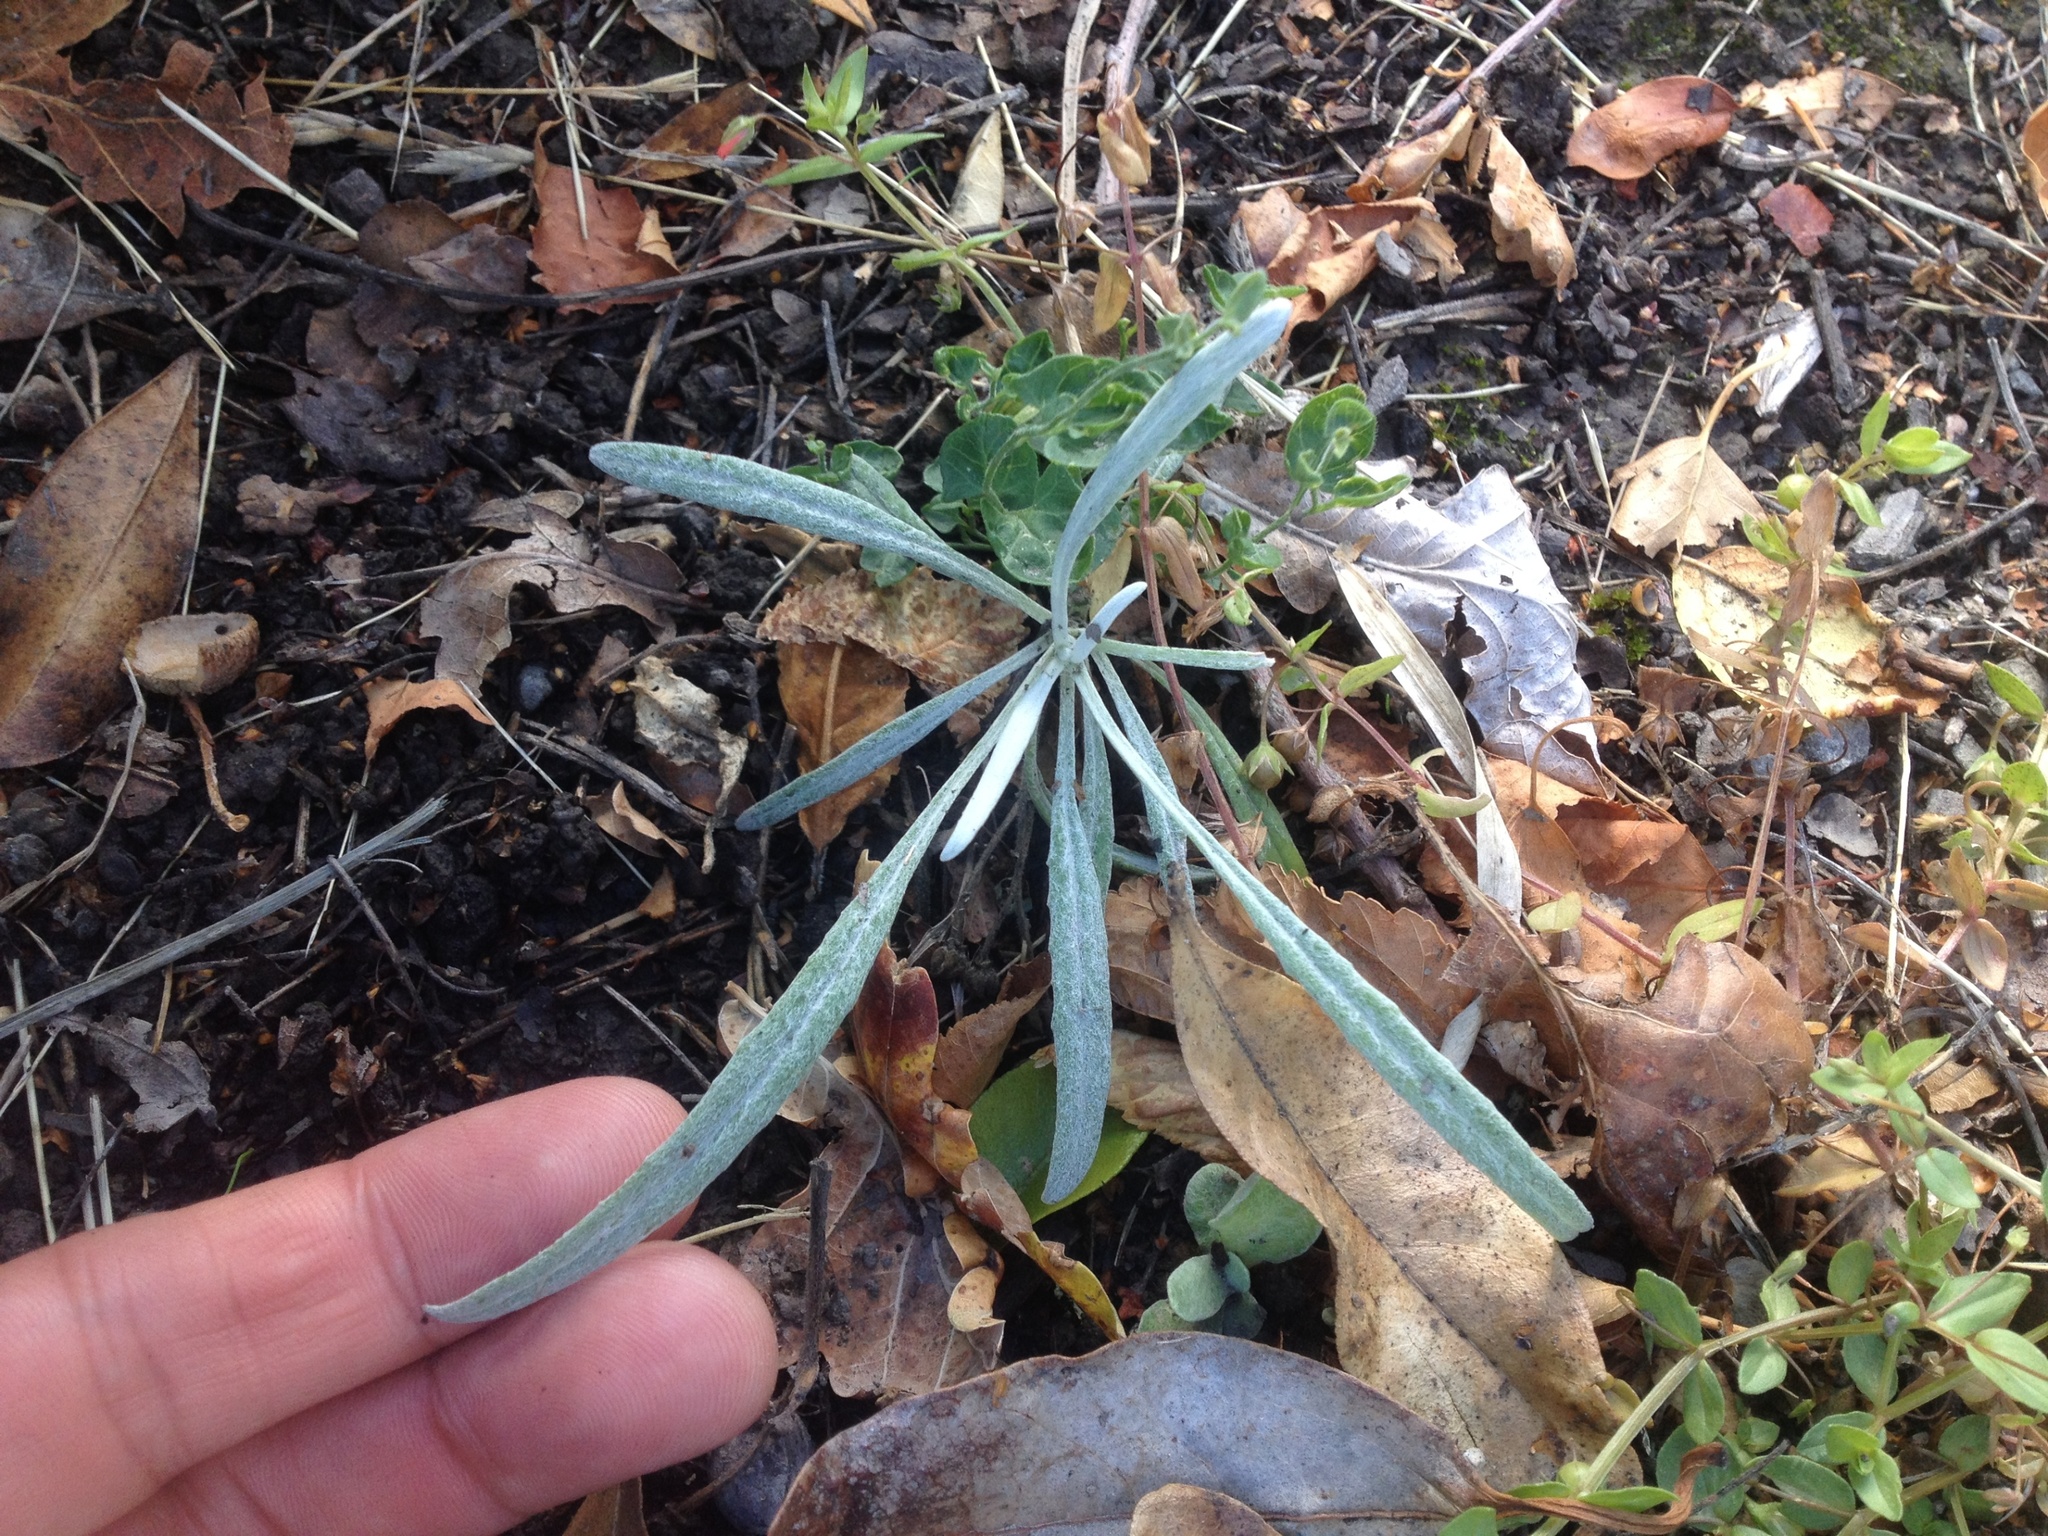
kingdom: Plantae
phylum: Tracheophyta
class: Magnoliopsida
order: Asterales
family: Asteraceae
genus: Senecio
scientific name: Senecio quadridentatus
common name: Cotton fireweed
